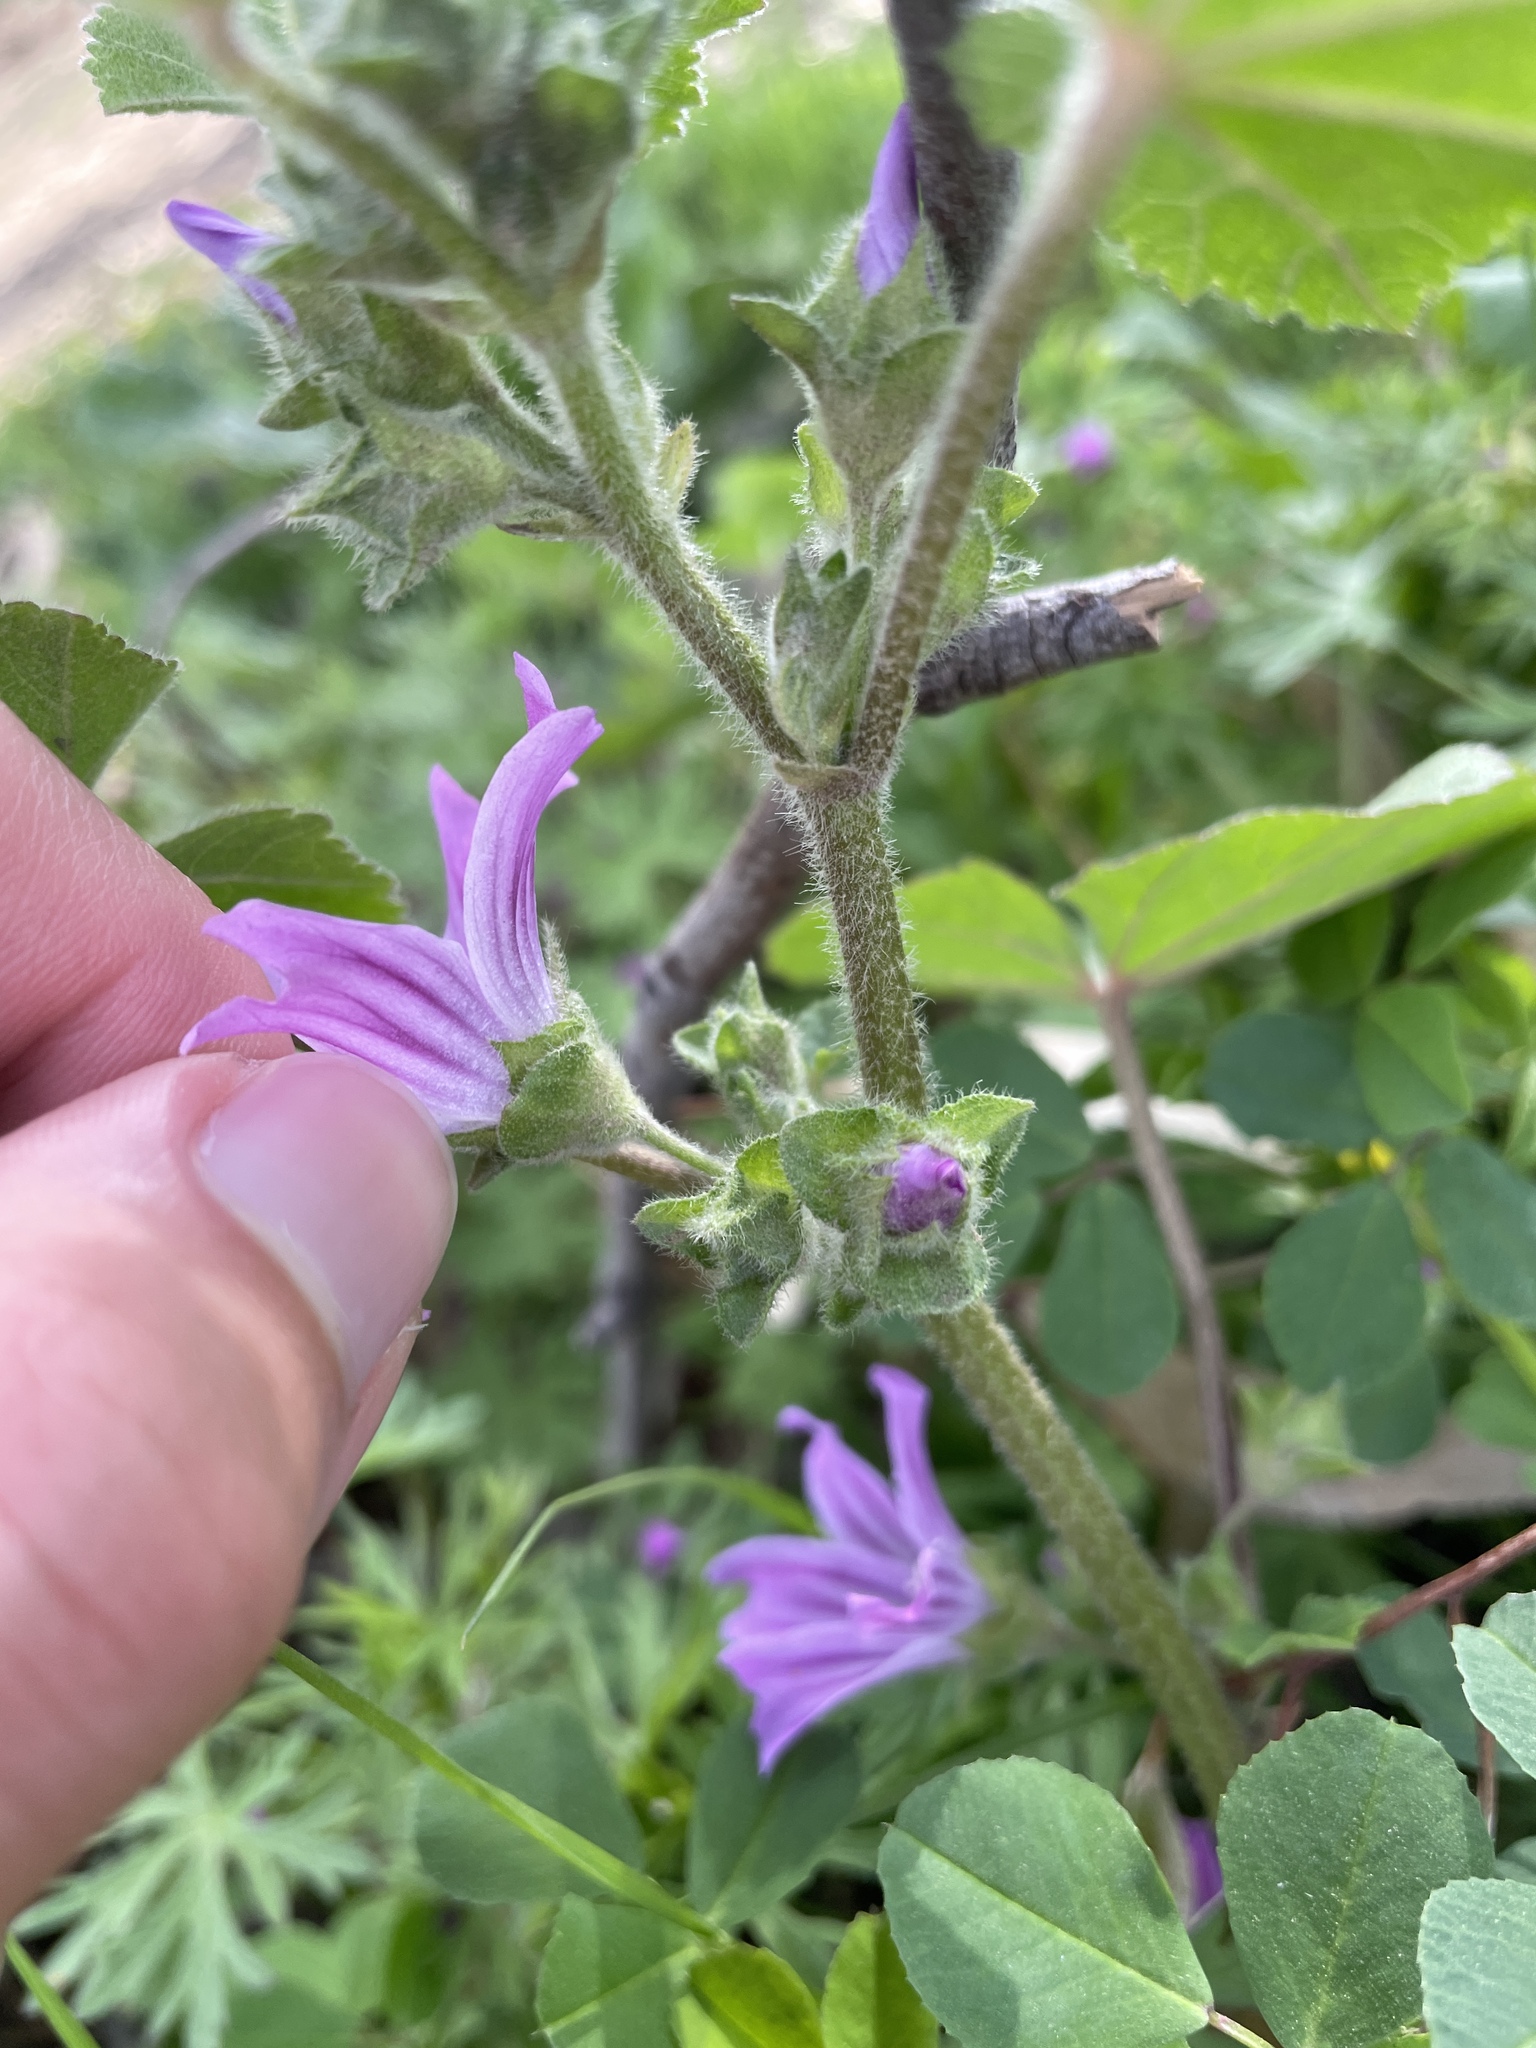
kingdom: Plantae
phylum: Tracheophyta
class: Magnoliopsida
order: Malvales
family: Malvaceae
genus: Malva
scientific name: Malva multiflora
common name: Cheeseweed
